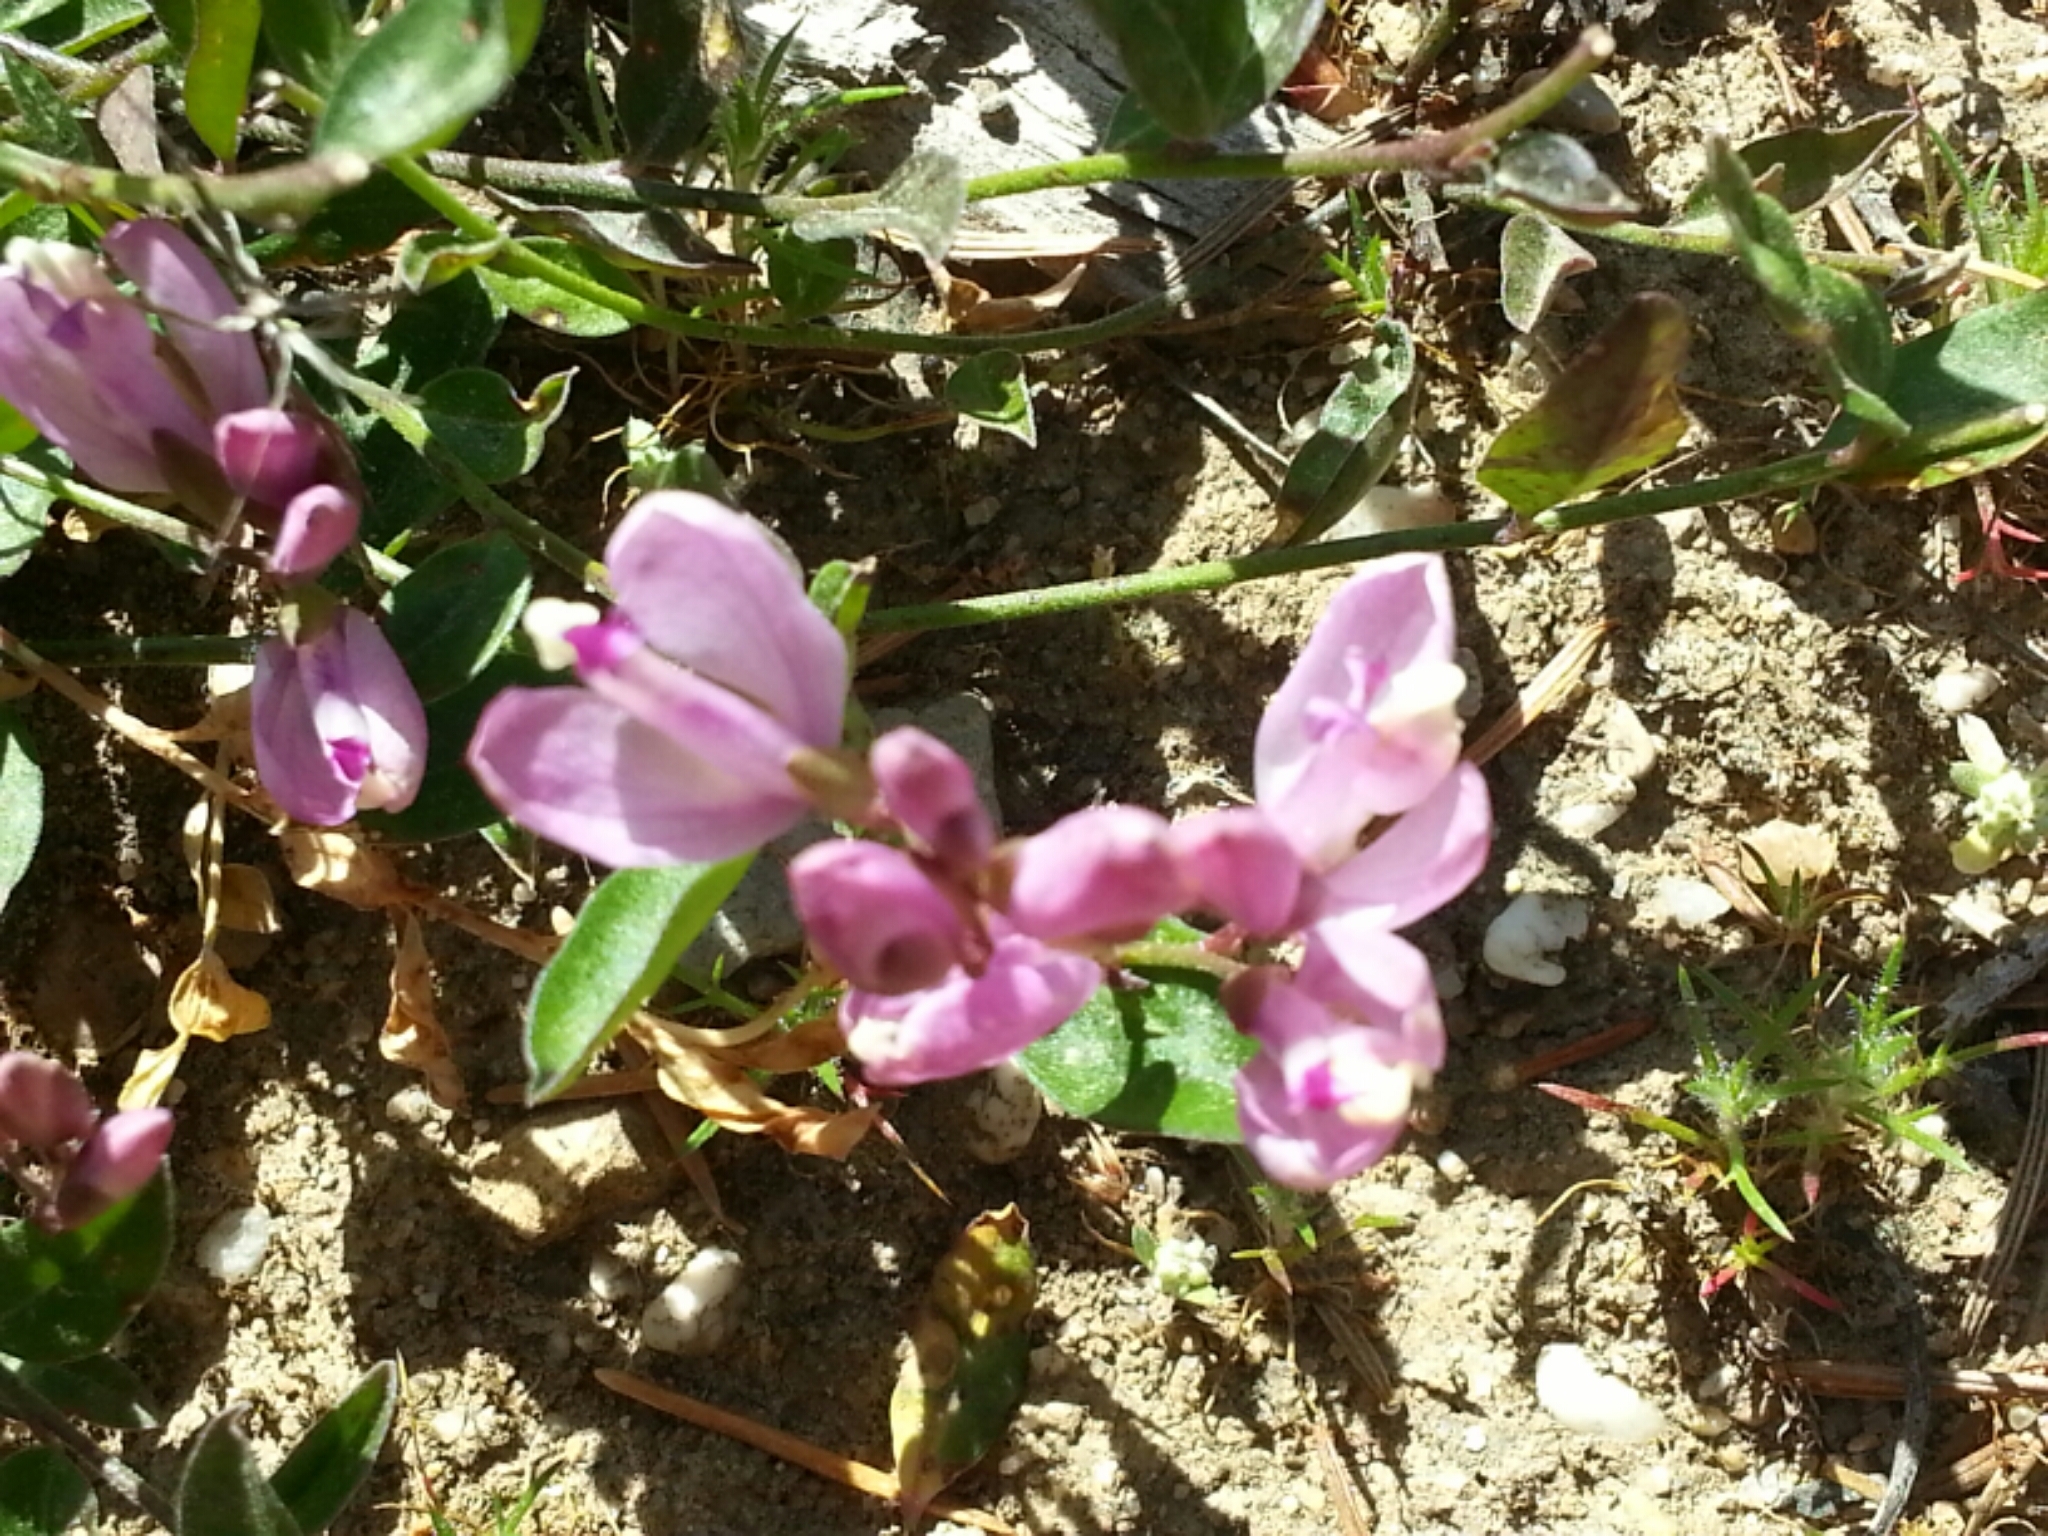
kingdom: Plantae
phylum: Tracheophyta
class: Magnoliopsida
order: Fabales
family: Polygalaceae
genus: Rhinotropis
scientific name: Rhinotropis californica
